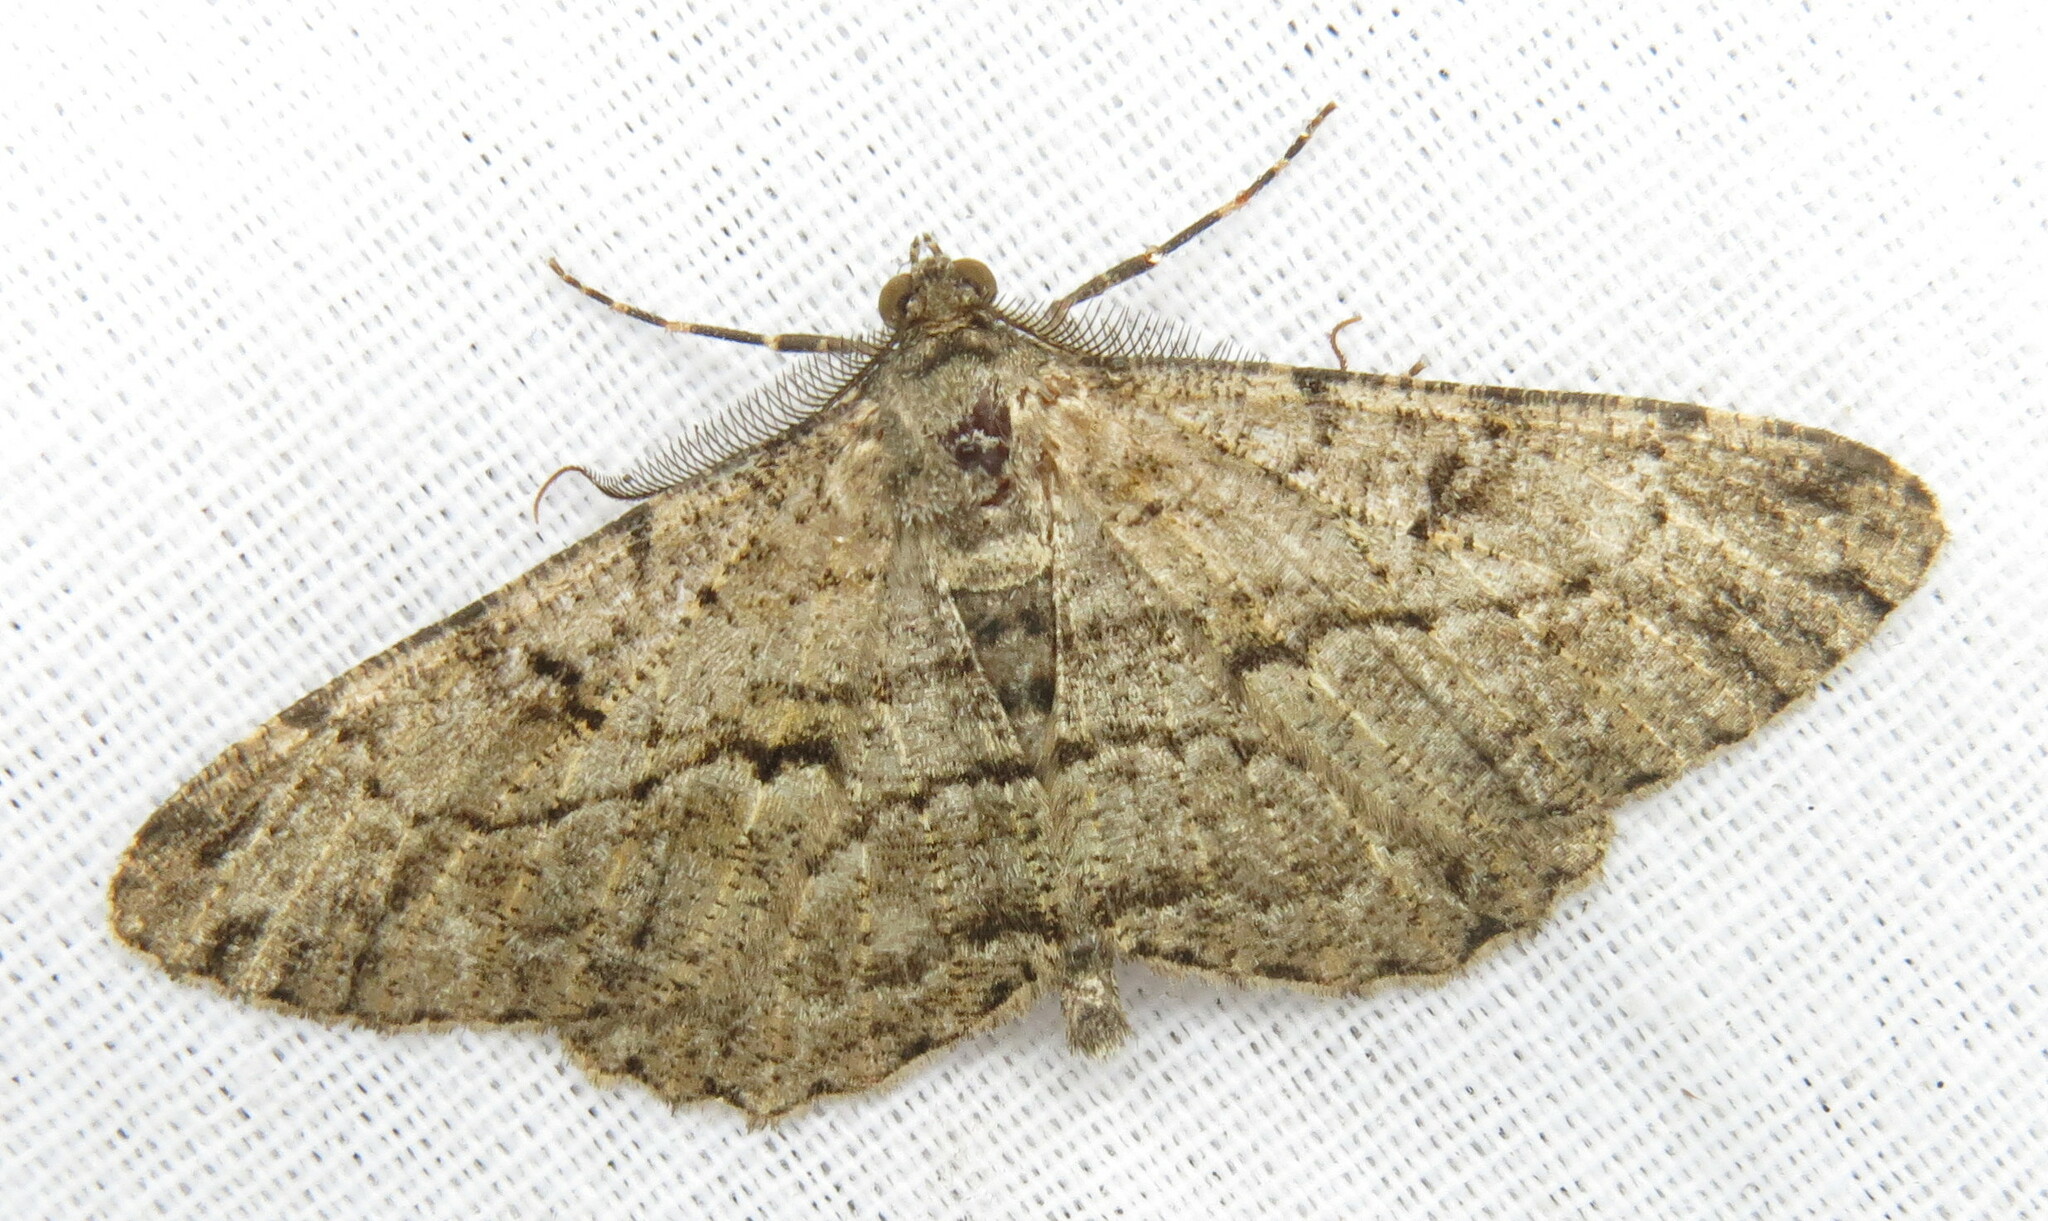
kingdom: Animalia
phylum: Arthropoda
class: Insecta
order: Lepidoptera
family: Geometridae
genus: Peribatodes
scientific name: Peribatodes rhomboidaria
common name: Willow beauty
